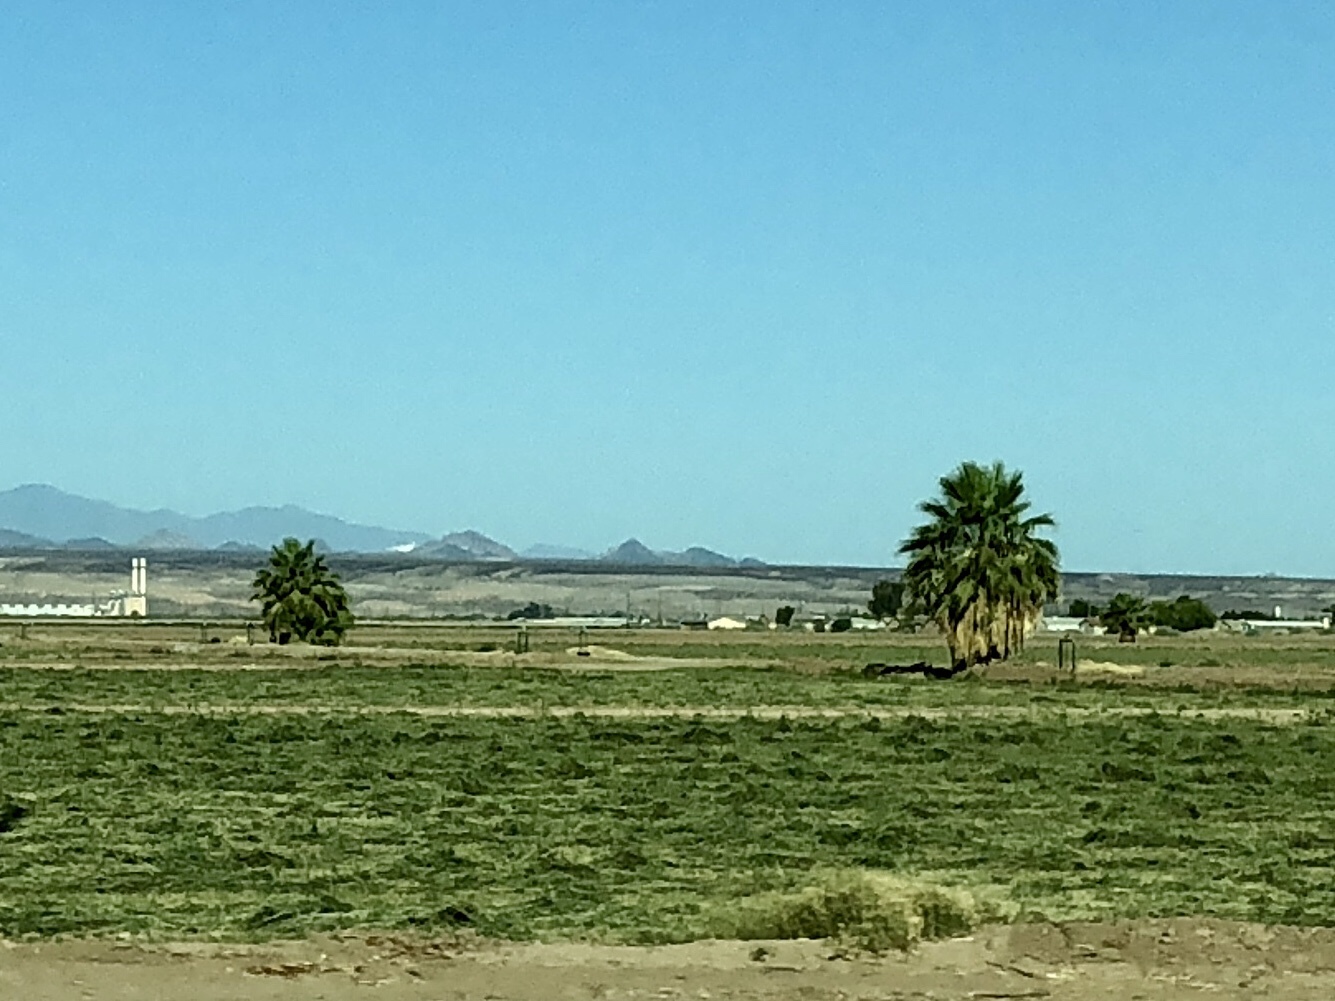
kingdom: Plantae
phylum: Tracheophyta
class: Liliopsida
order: Arecales
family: Arecaceae
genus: Washingtonia
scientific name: Washingtonia filifera
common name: California fan palm
